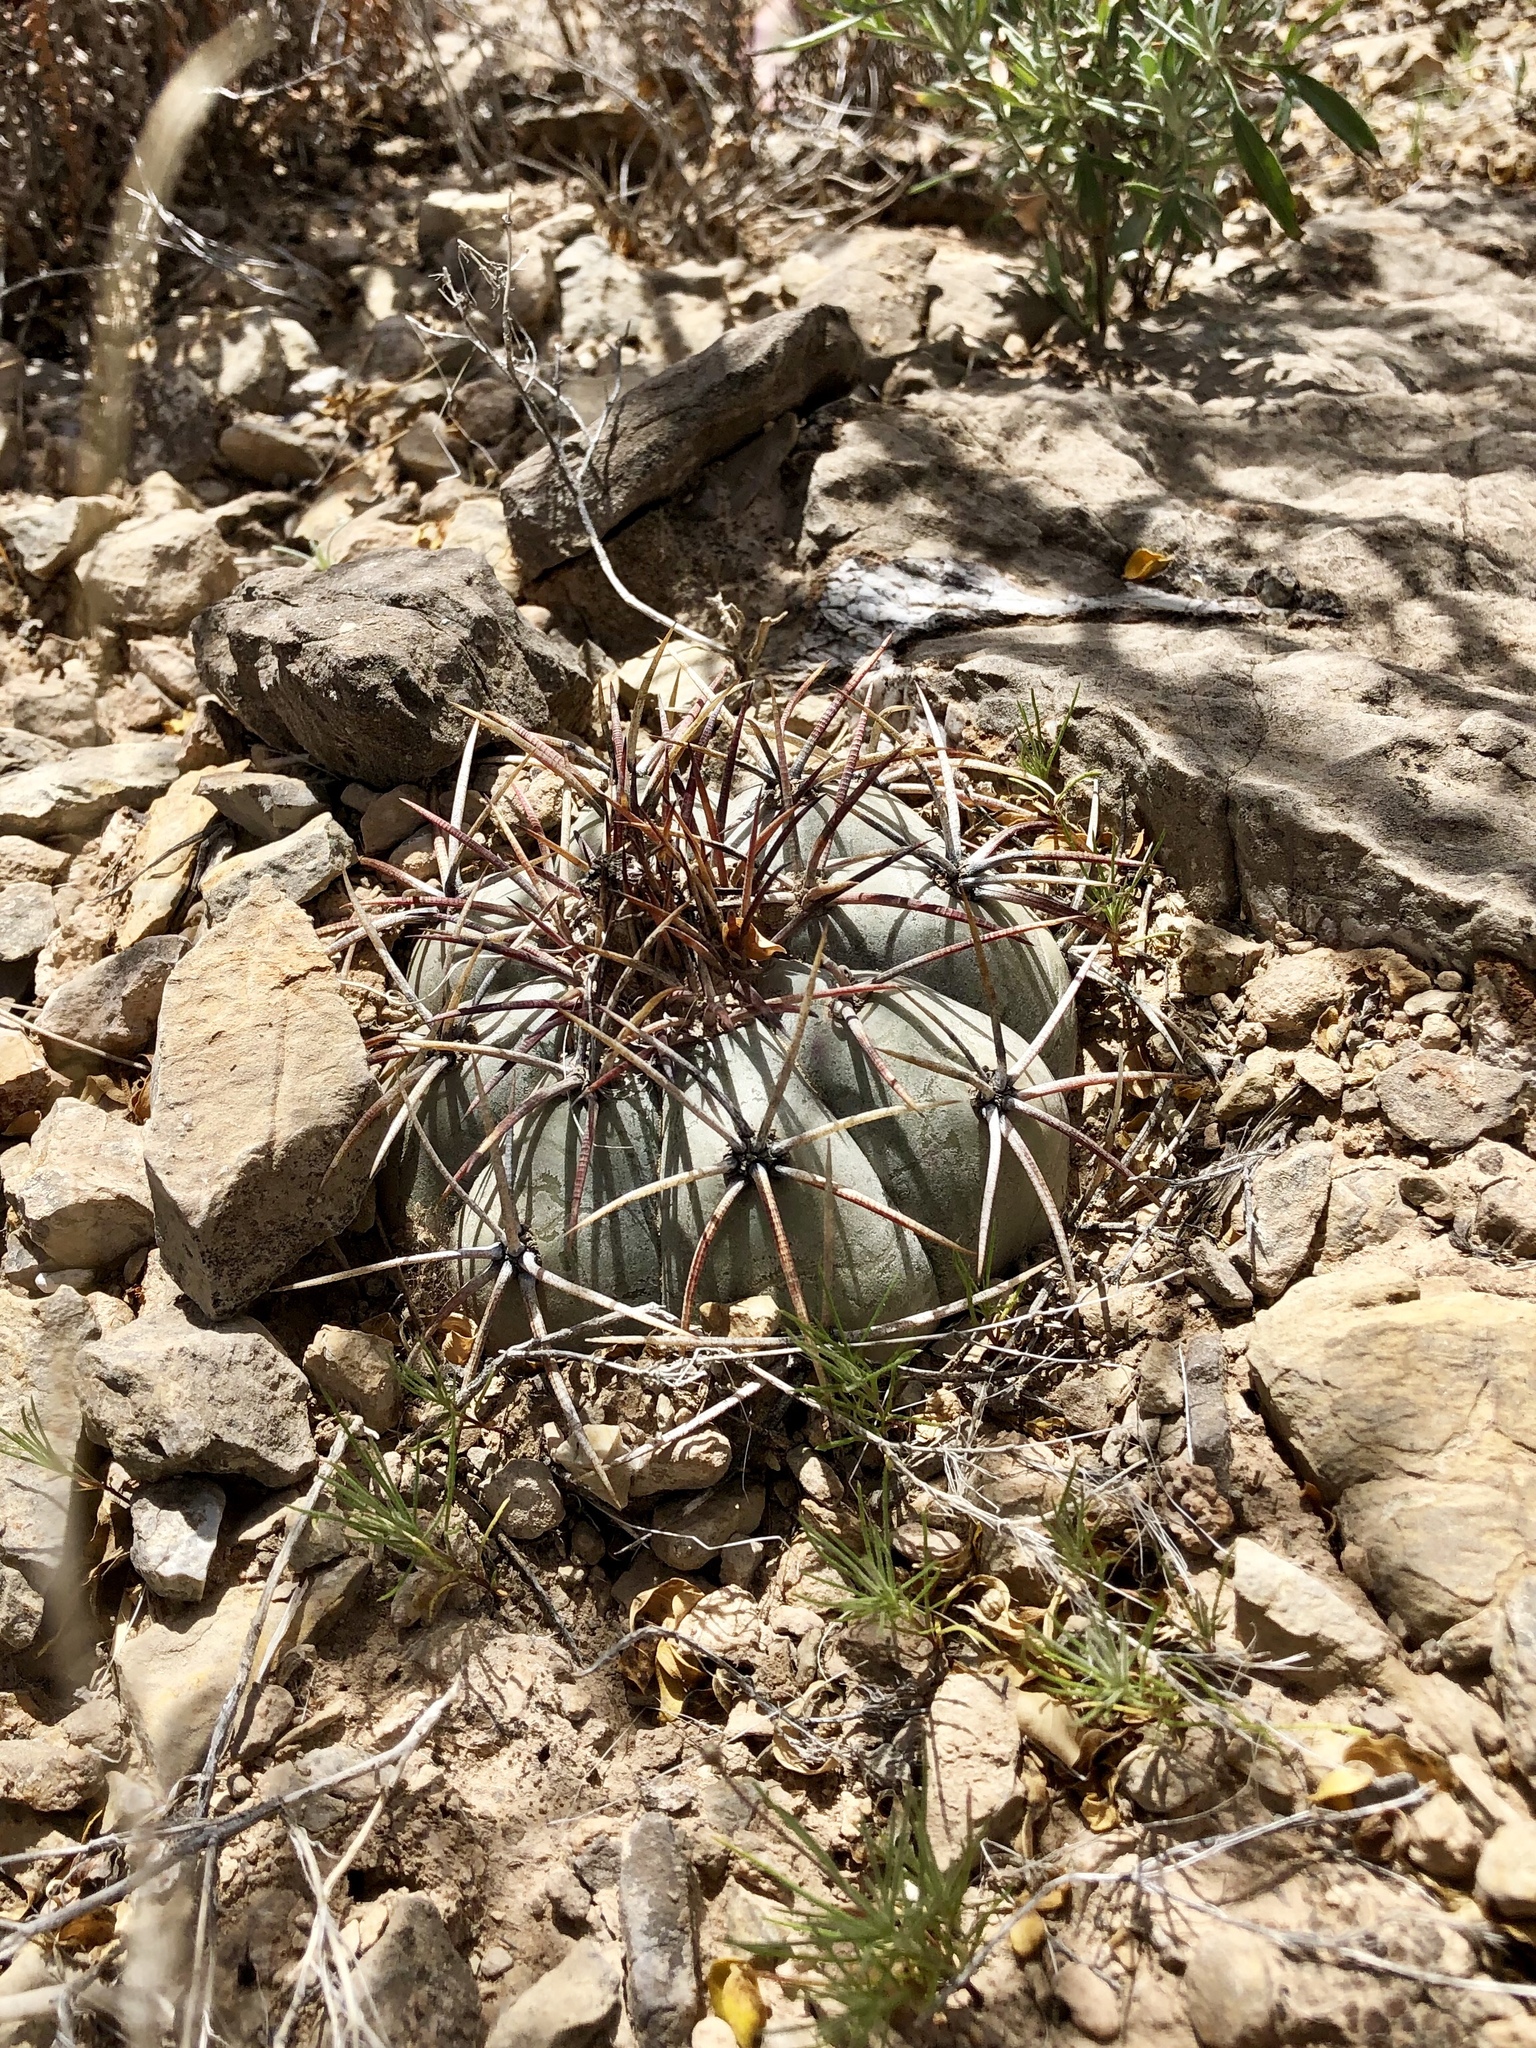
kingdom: Plantae
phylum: Tracheophyta
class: Magnoliopsida
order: Caryophyllales
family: Cactaceae
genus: Echinocactus
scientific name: Echinocactus horizonthalonius
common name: Devilshead
